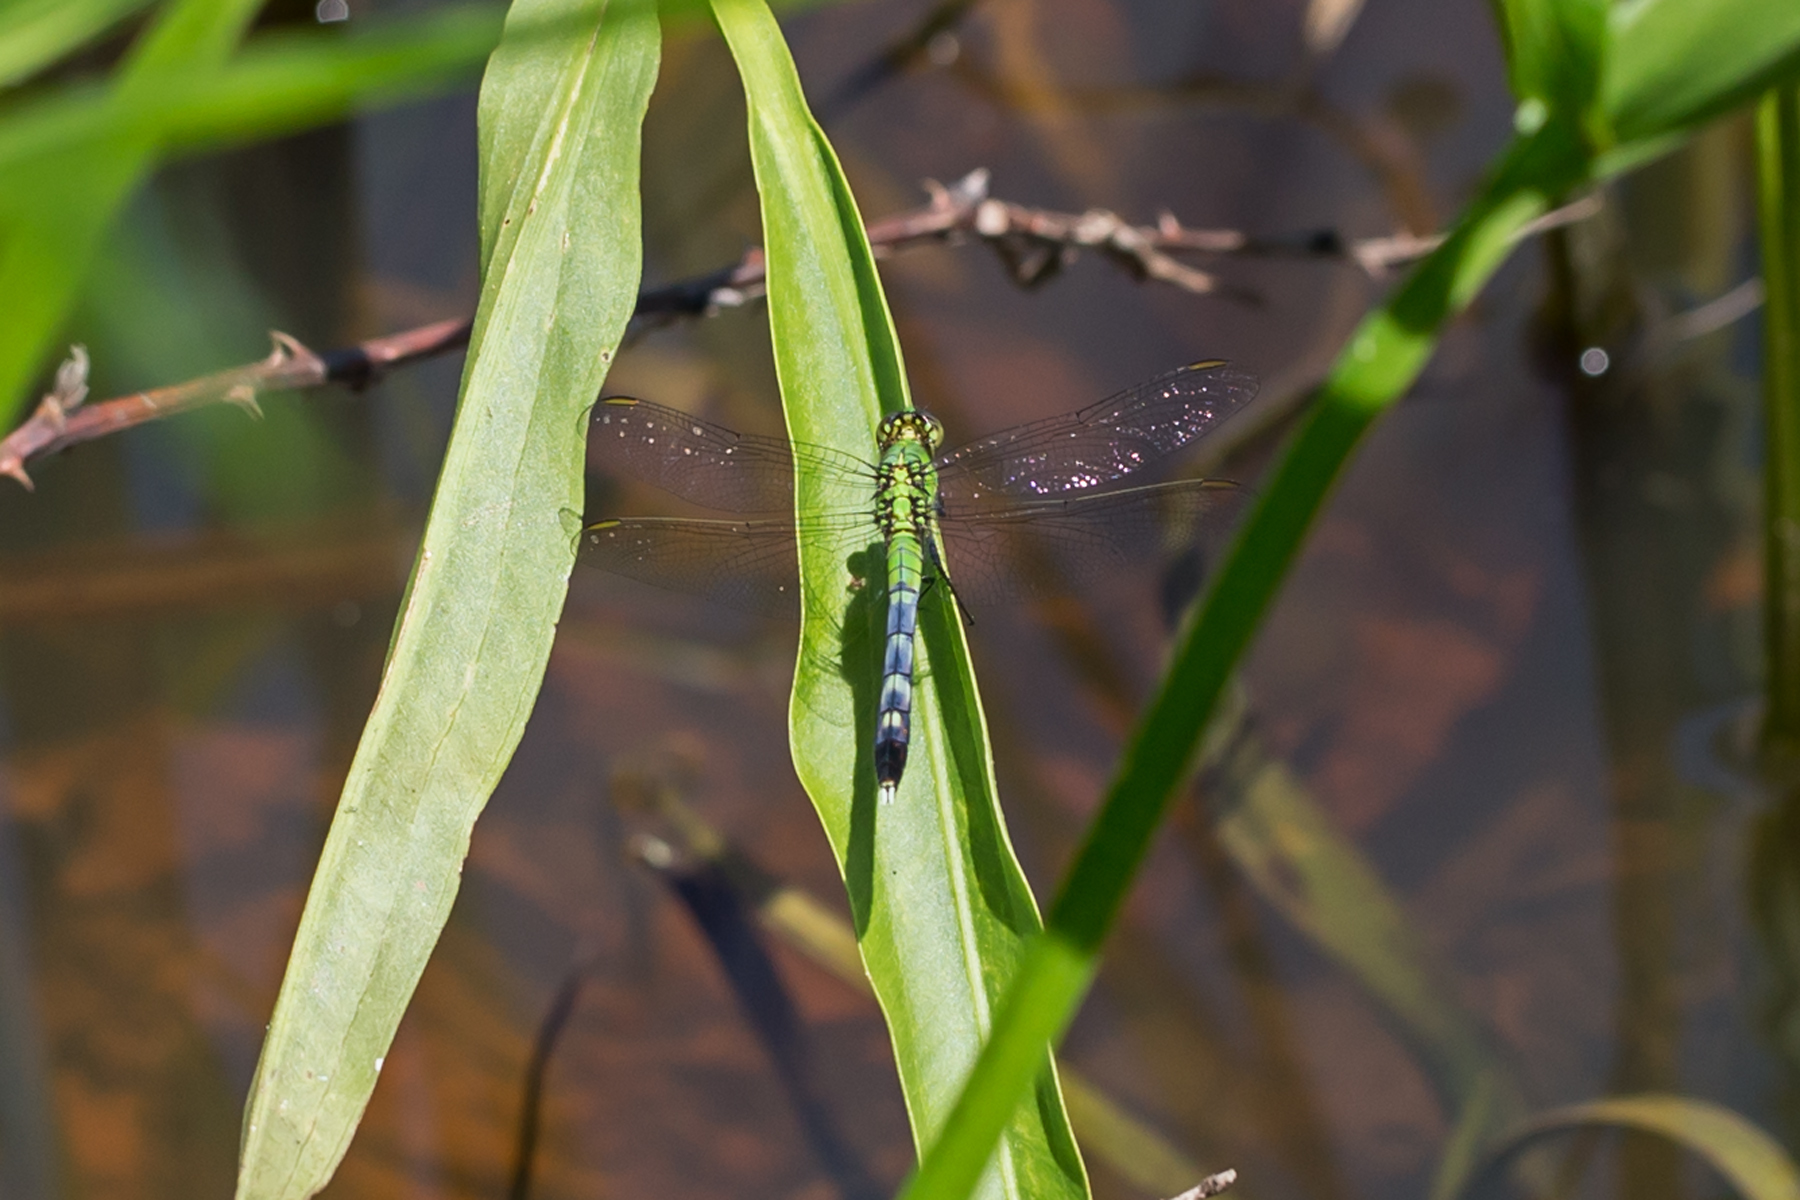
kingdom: Animalia
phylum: Arthropoda
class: Insecta
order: Odonata
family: Libellulidae
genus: Erythemis
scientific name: Erythemis simplicicollis
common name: Eastern pondhawk
